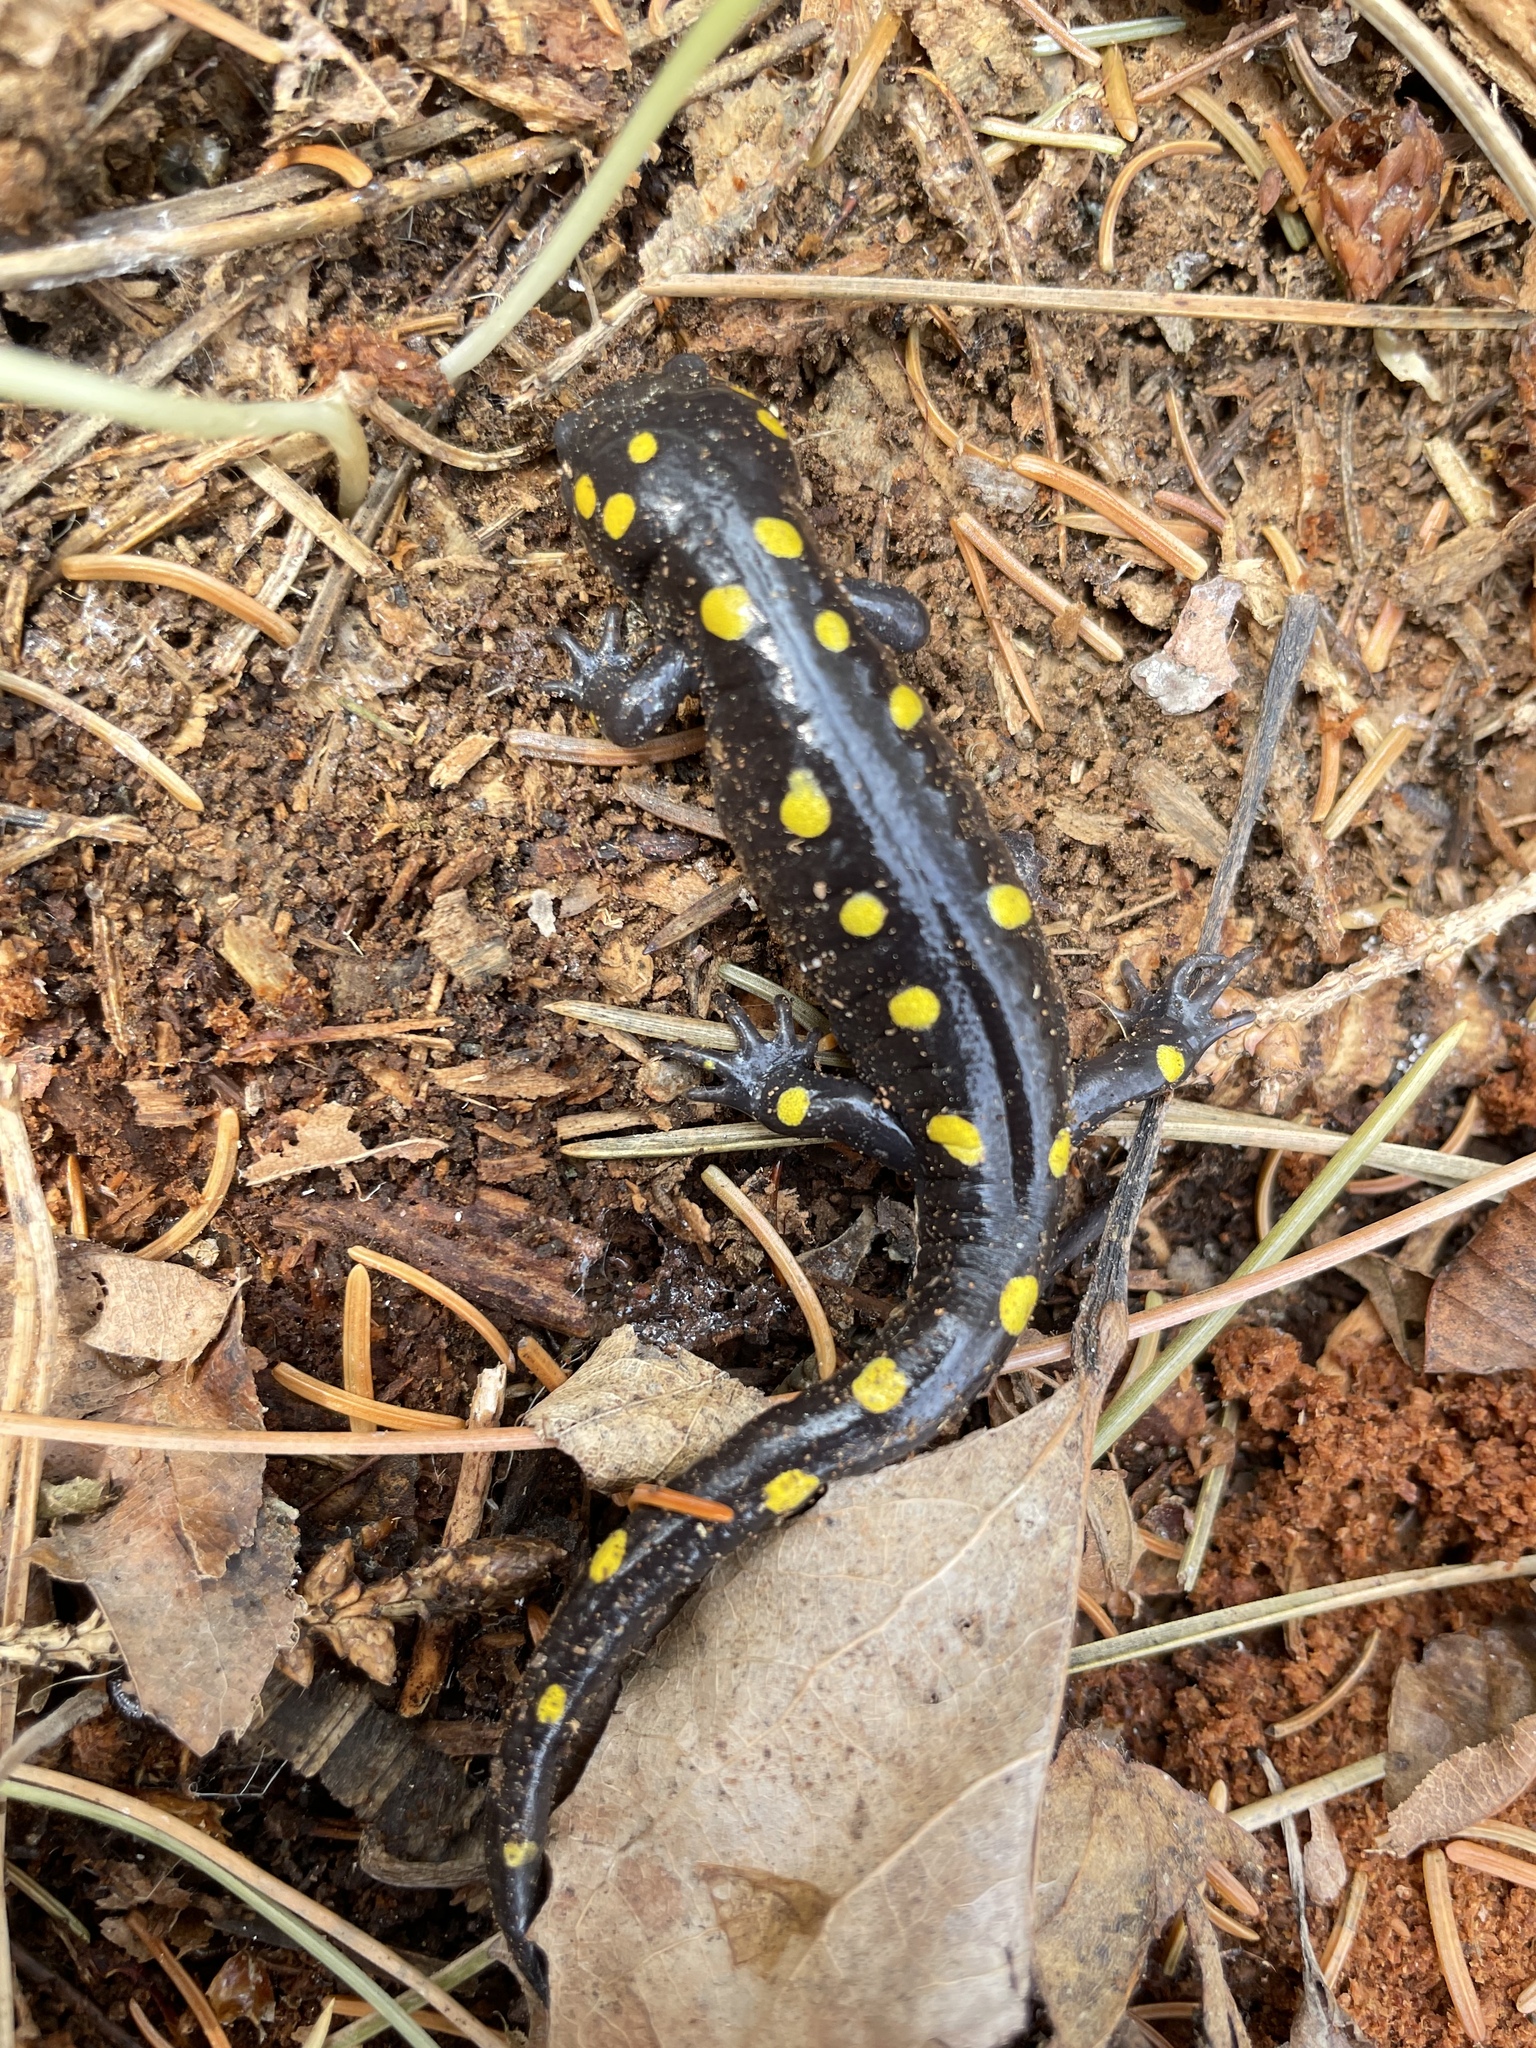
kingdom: Animalia
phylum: Chordata
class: Amphibia
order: Caudata
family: Ambystomatidae
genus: Ambystoma
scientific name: Ambystoma maculatum
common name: Spotted salamander
